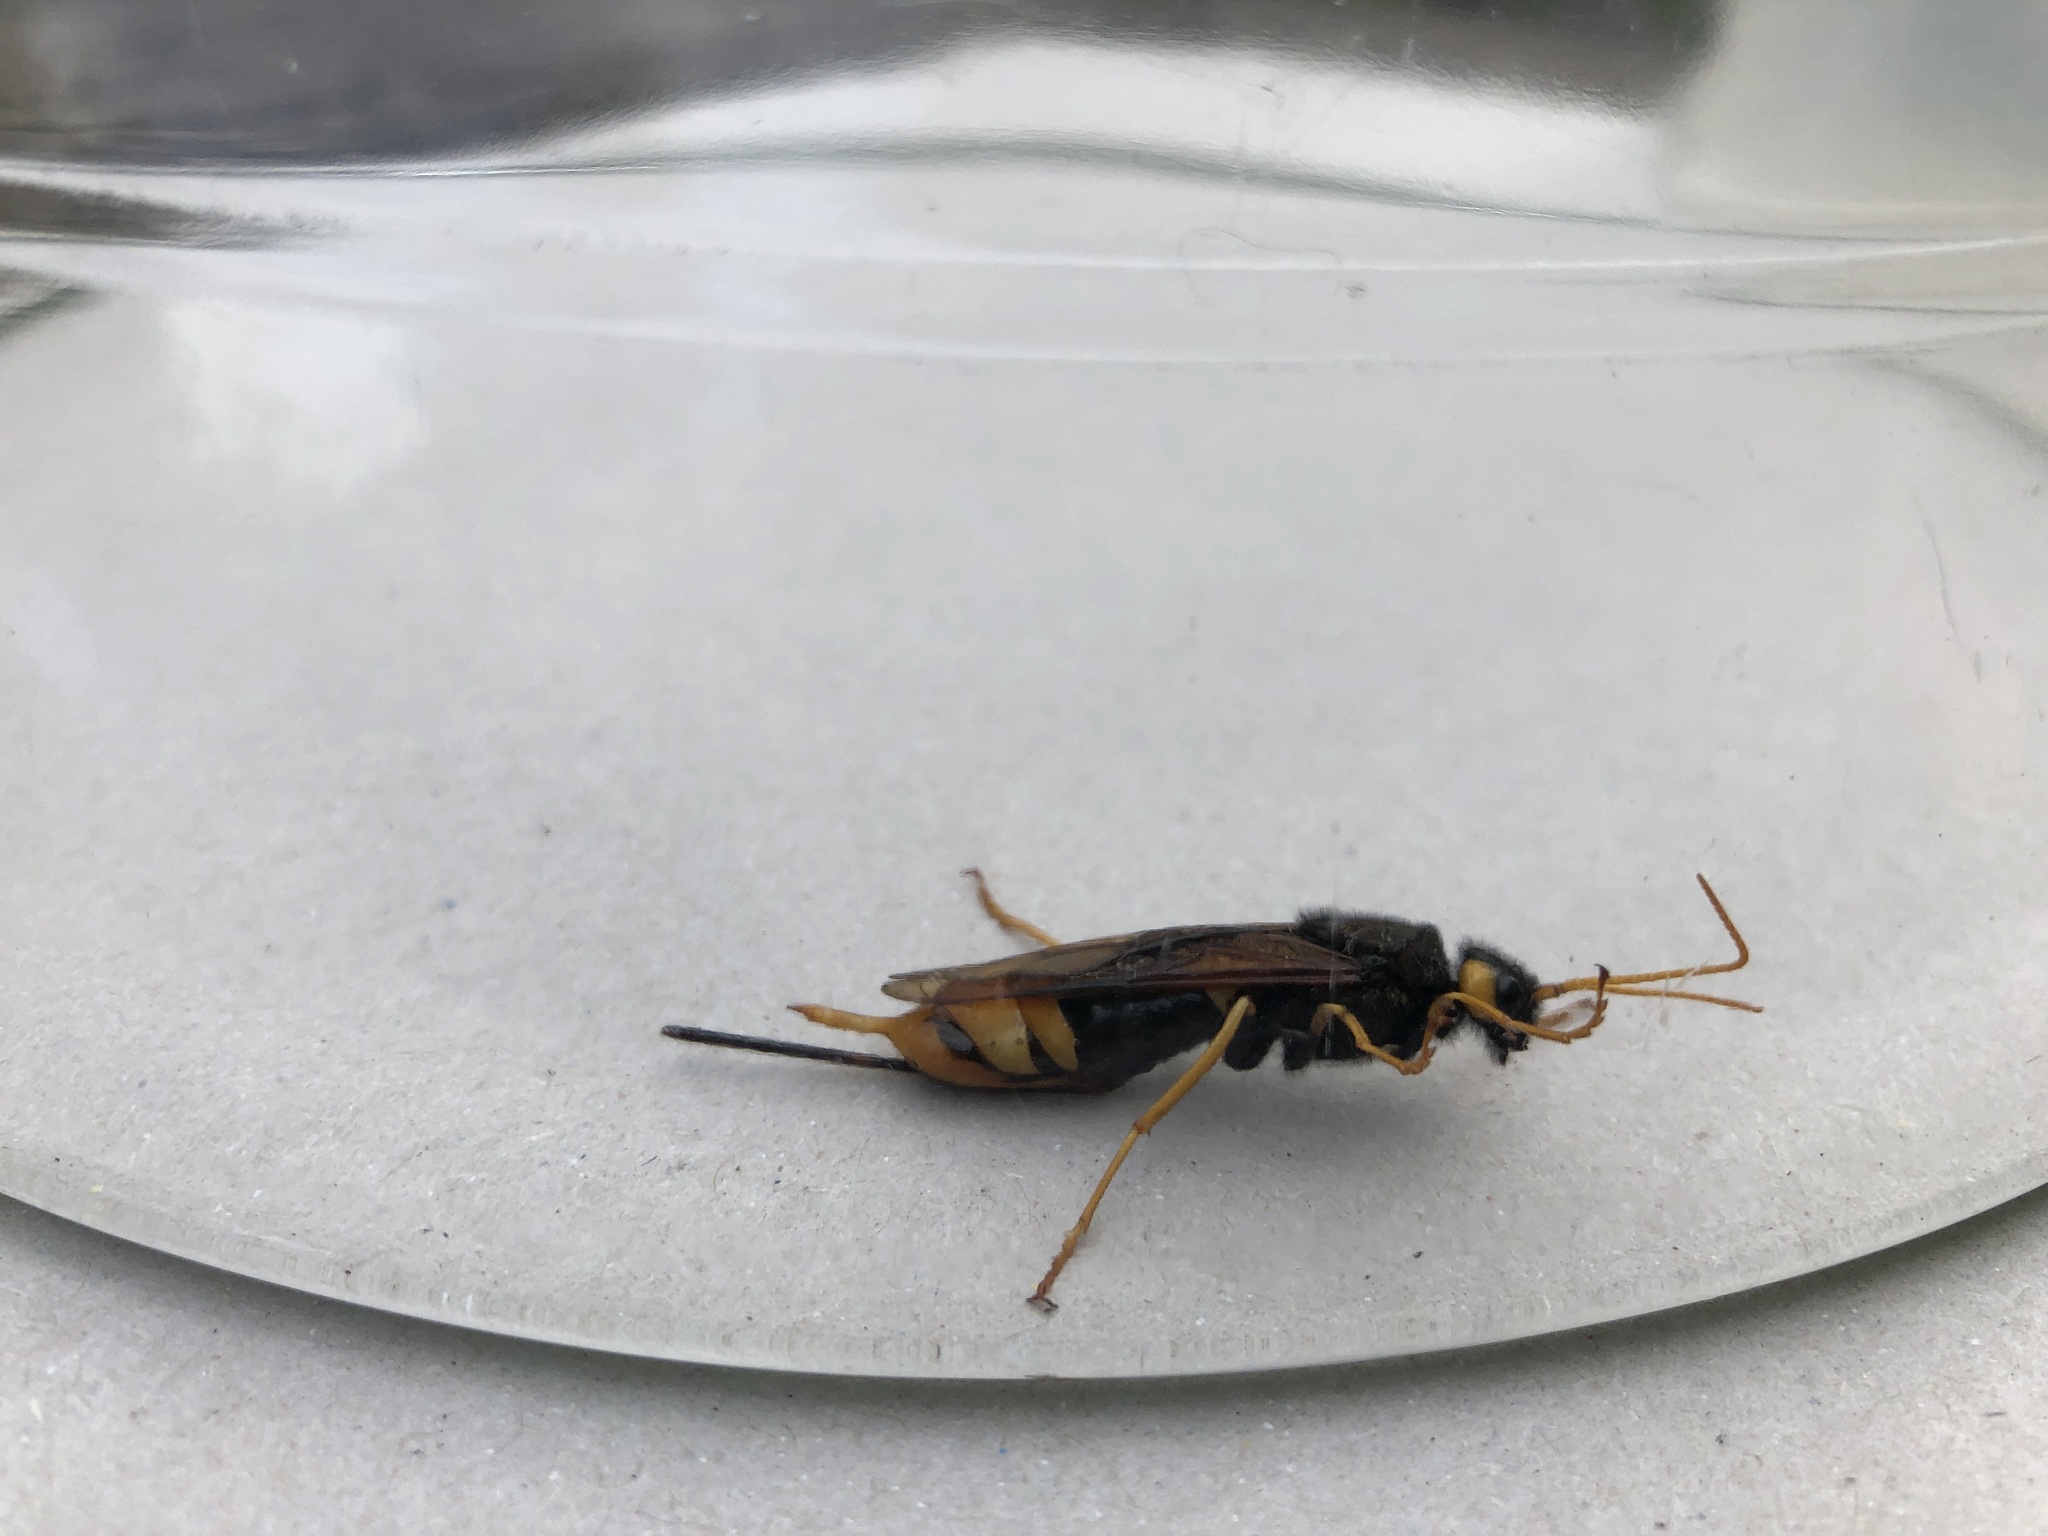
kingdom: Animalia
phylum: Arthropoda
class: Insecta
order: Hymenoptera
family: Siricidae
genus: Urocerus
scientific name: Urocerus gigas
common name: Giant woodwasp
